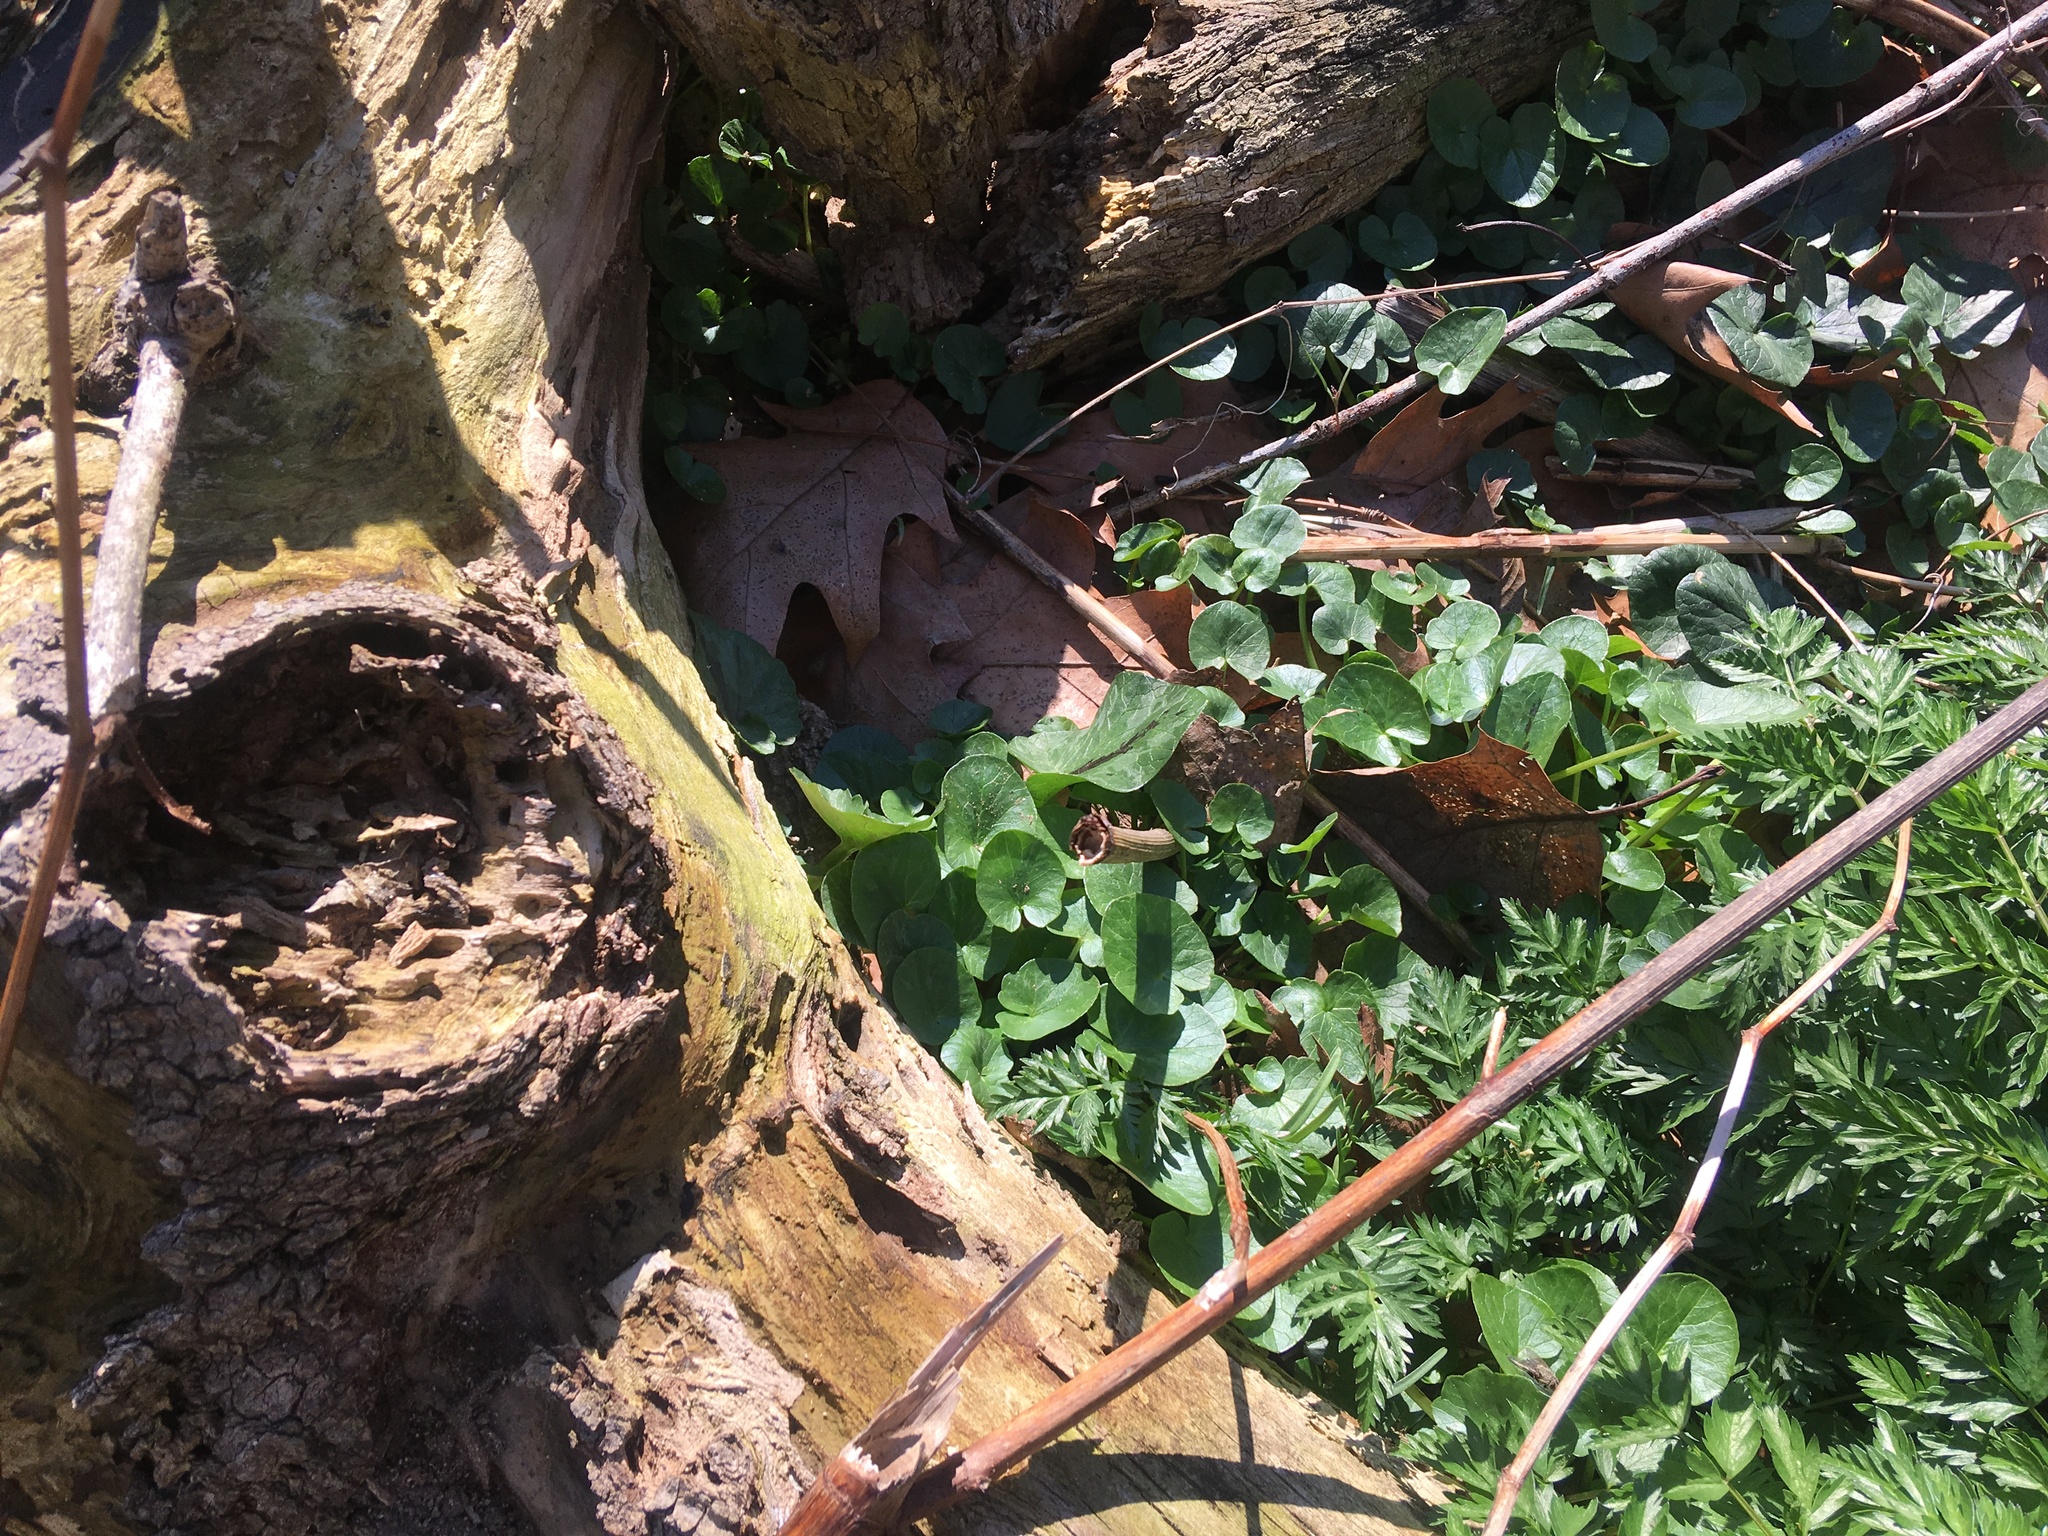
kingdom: Plantae
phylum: Tracheophyta
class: Magnoliopsida
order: Ranunculales
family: Ranunculaceae
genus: Ficaria
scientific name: Ficaria verna
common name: Lesser celandine
